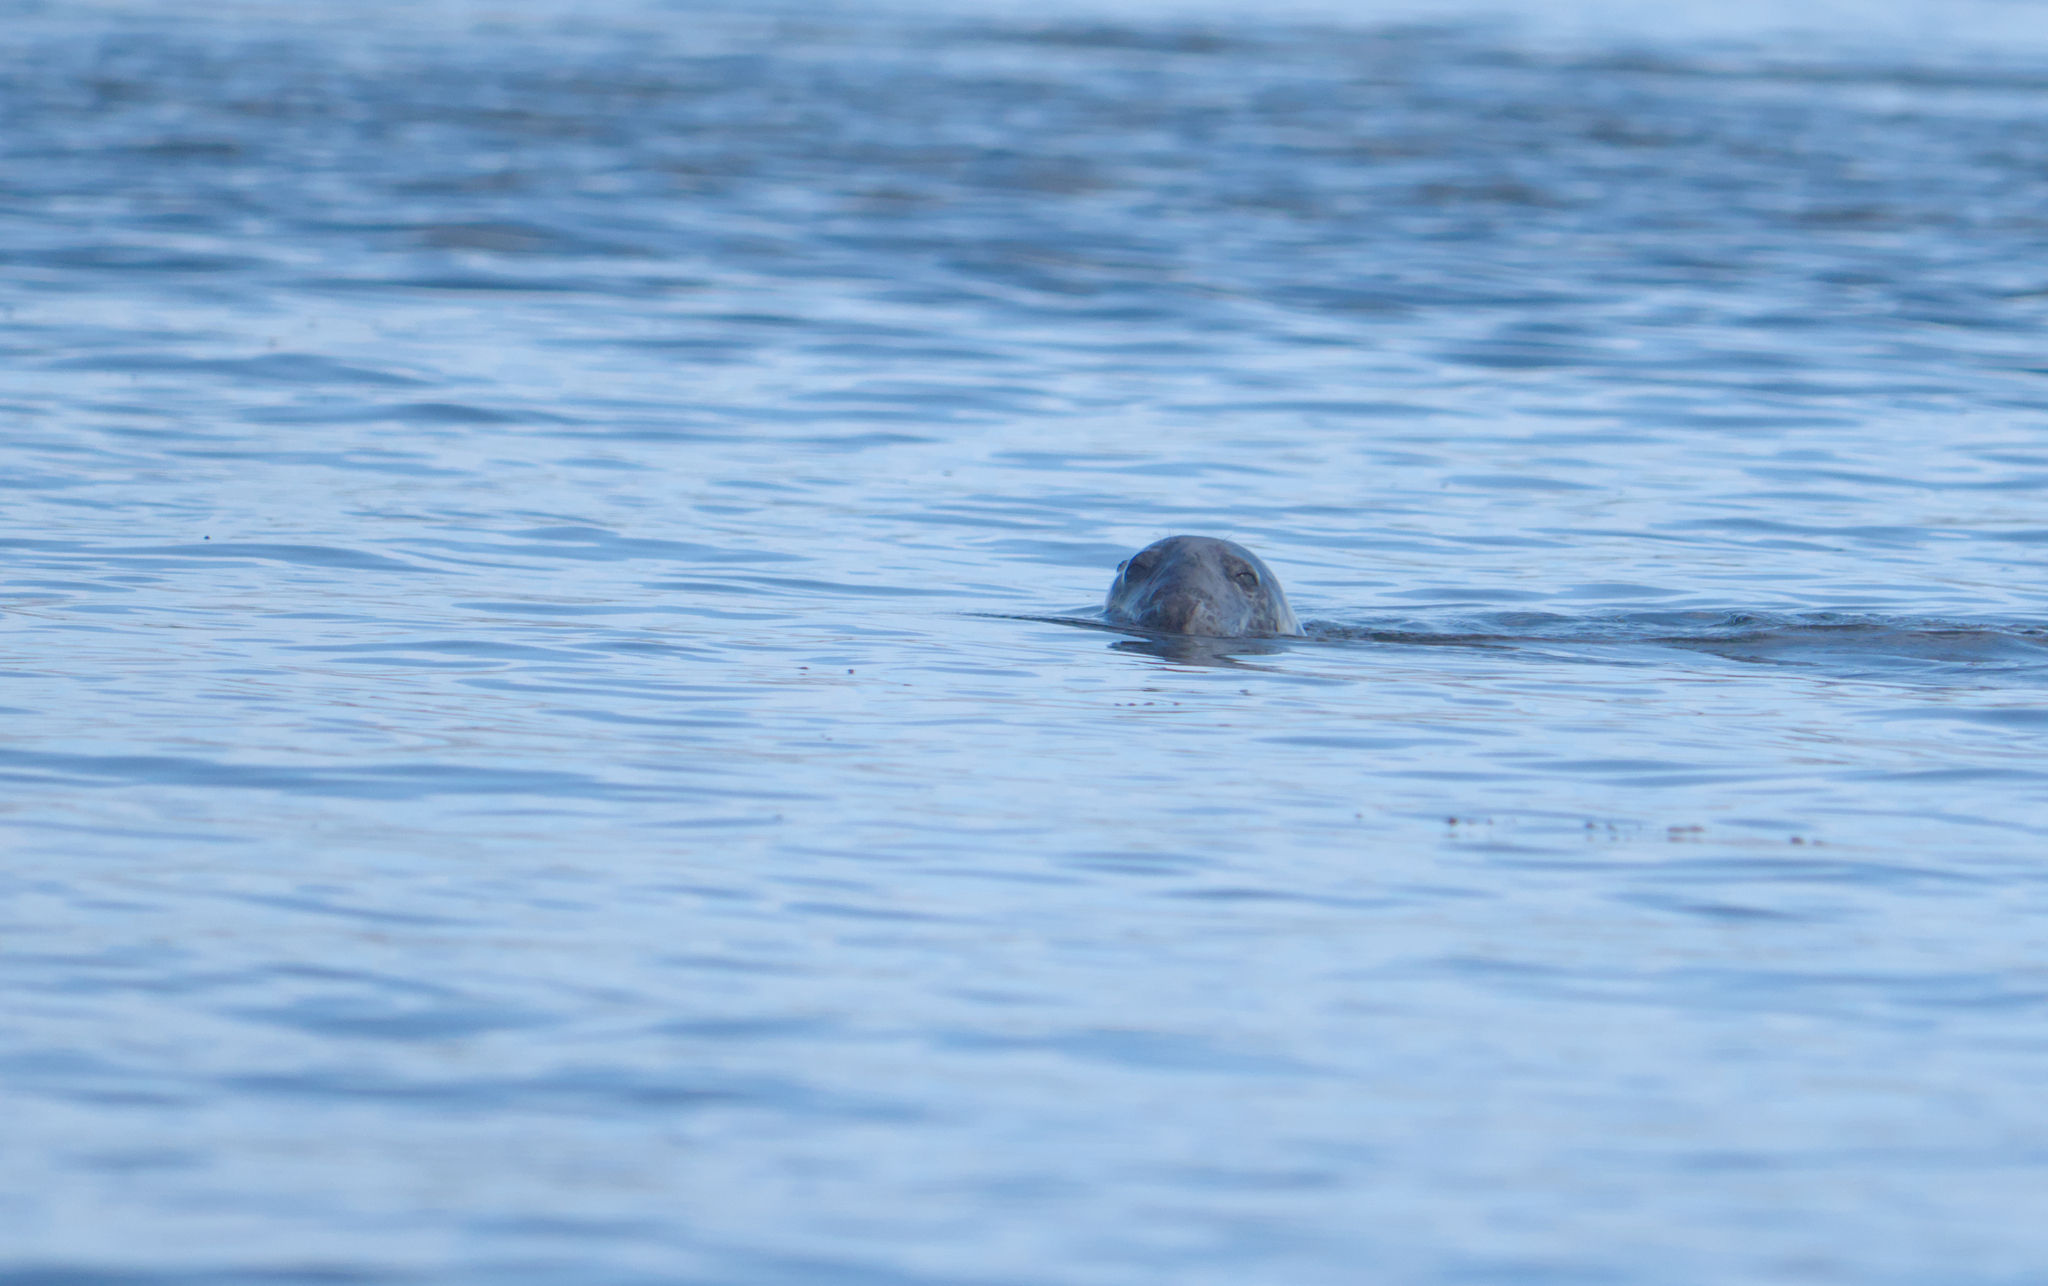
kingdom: Animalia
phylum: Chordata
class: Mammalia
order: Carnivora
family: Phocidae
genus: Halichoerus
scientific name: Halichoerus grypus
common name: Grey seal
